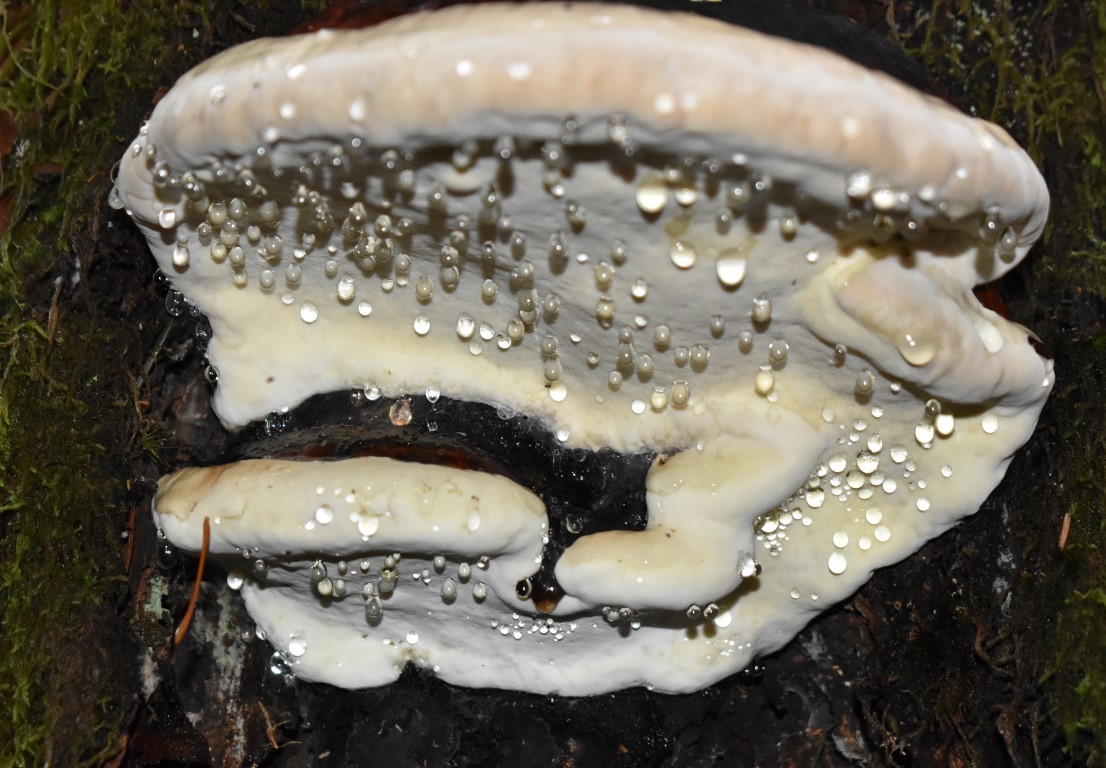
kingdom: Fungi
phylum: Basidiomycota
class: Agaricomycetes
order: Polyporales
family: Fomitopsidaceae
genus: Fomitopsis
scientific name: Fomitopsis mounceae
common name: Northern red belt
